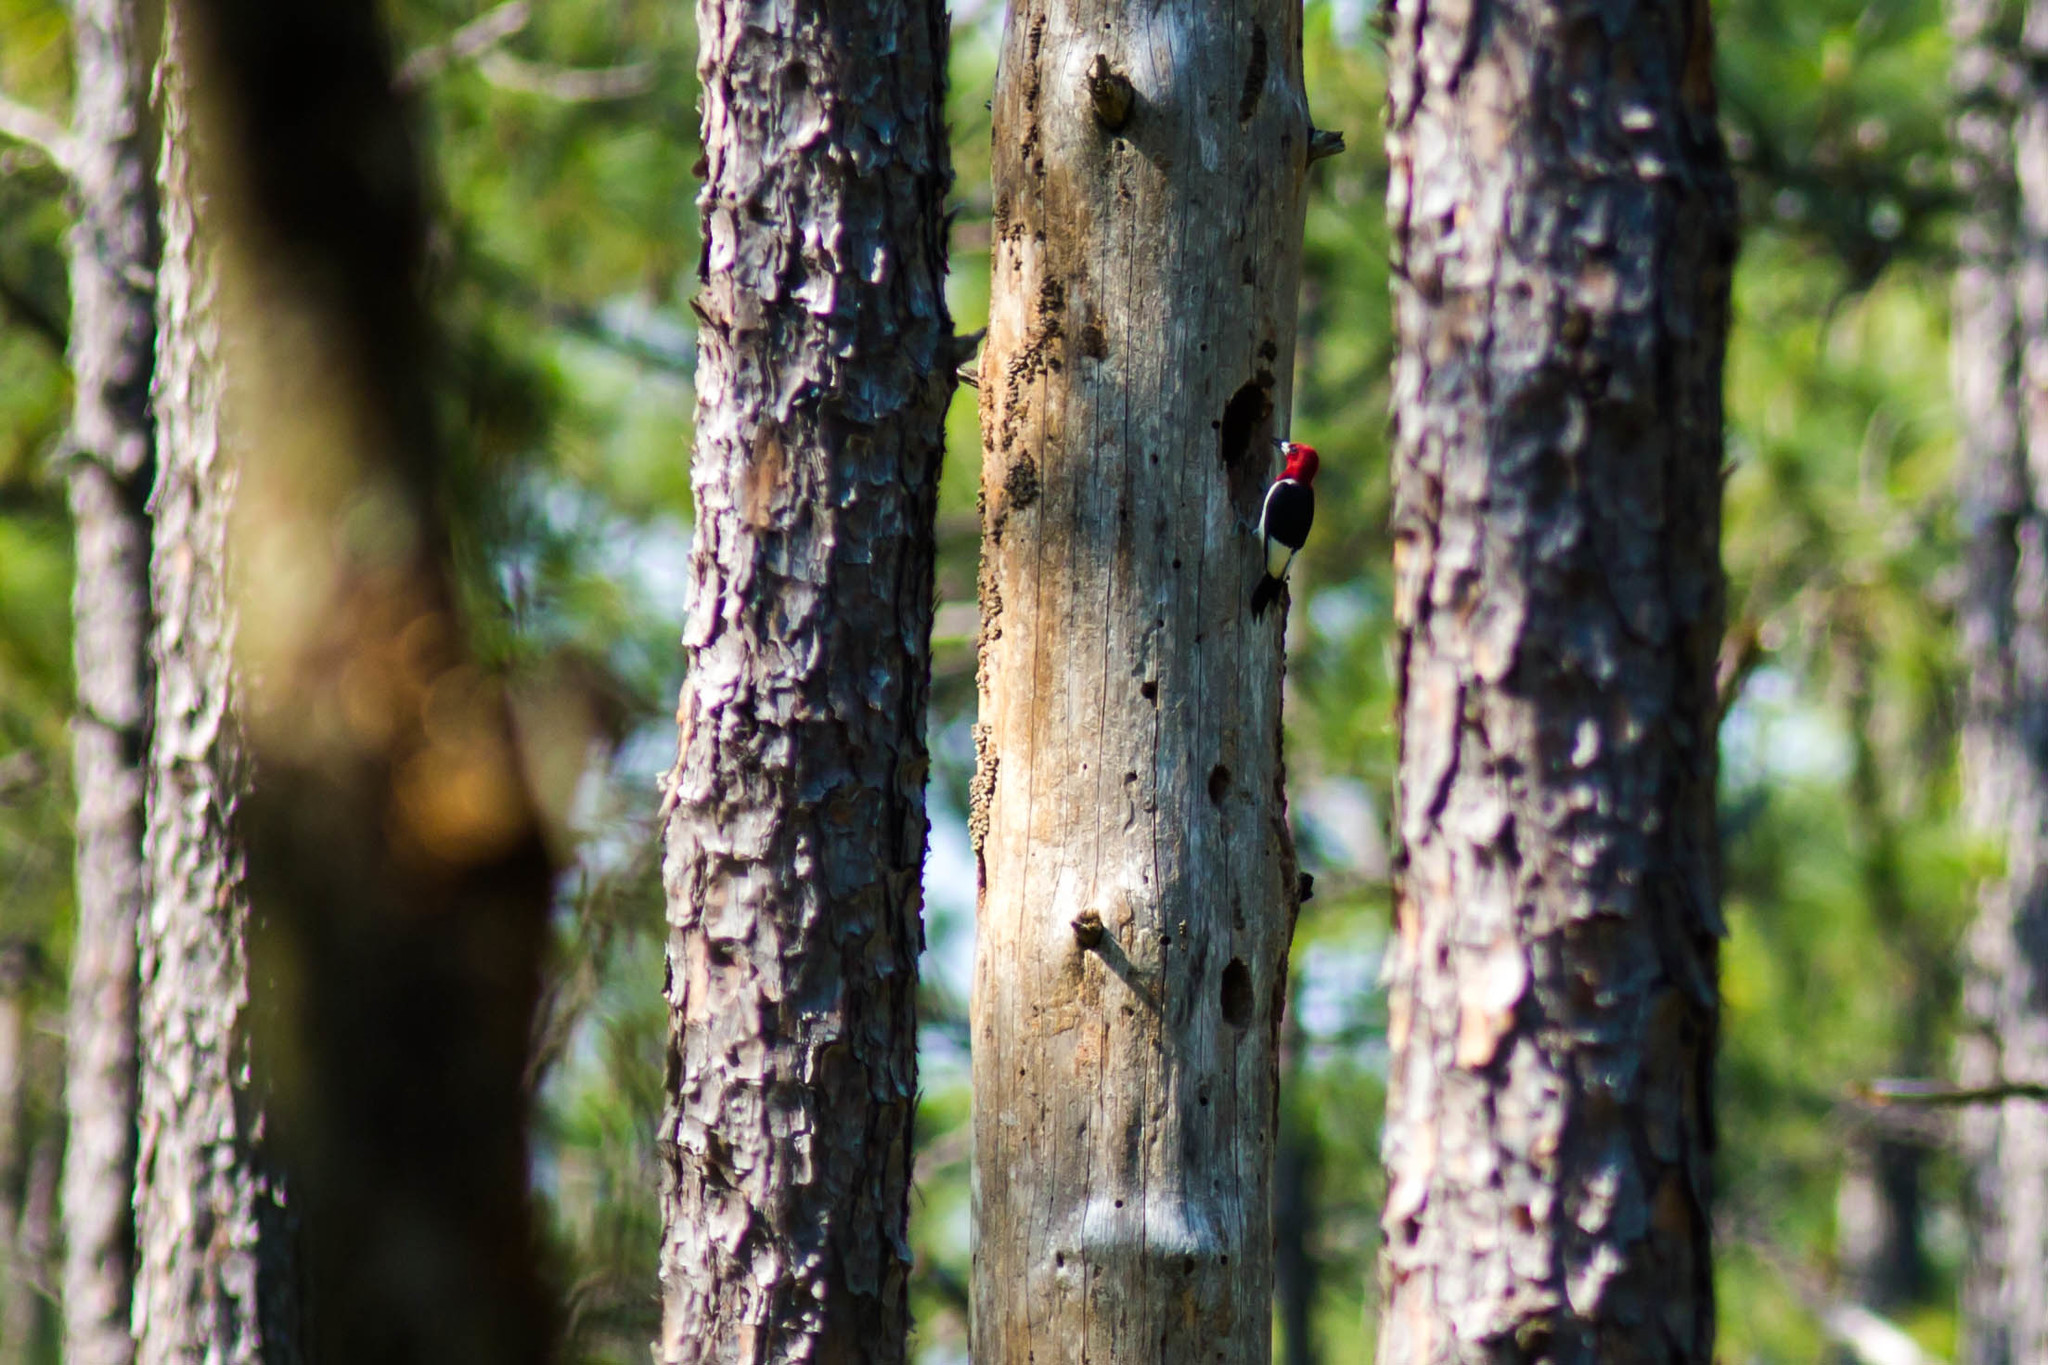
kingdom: Animalia
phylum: Chordata
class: Aves
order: Piciformes
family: Picidae
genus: Melanerpes
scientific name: Melanerpes erythrocephalus
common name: Red-headed woodpecker
